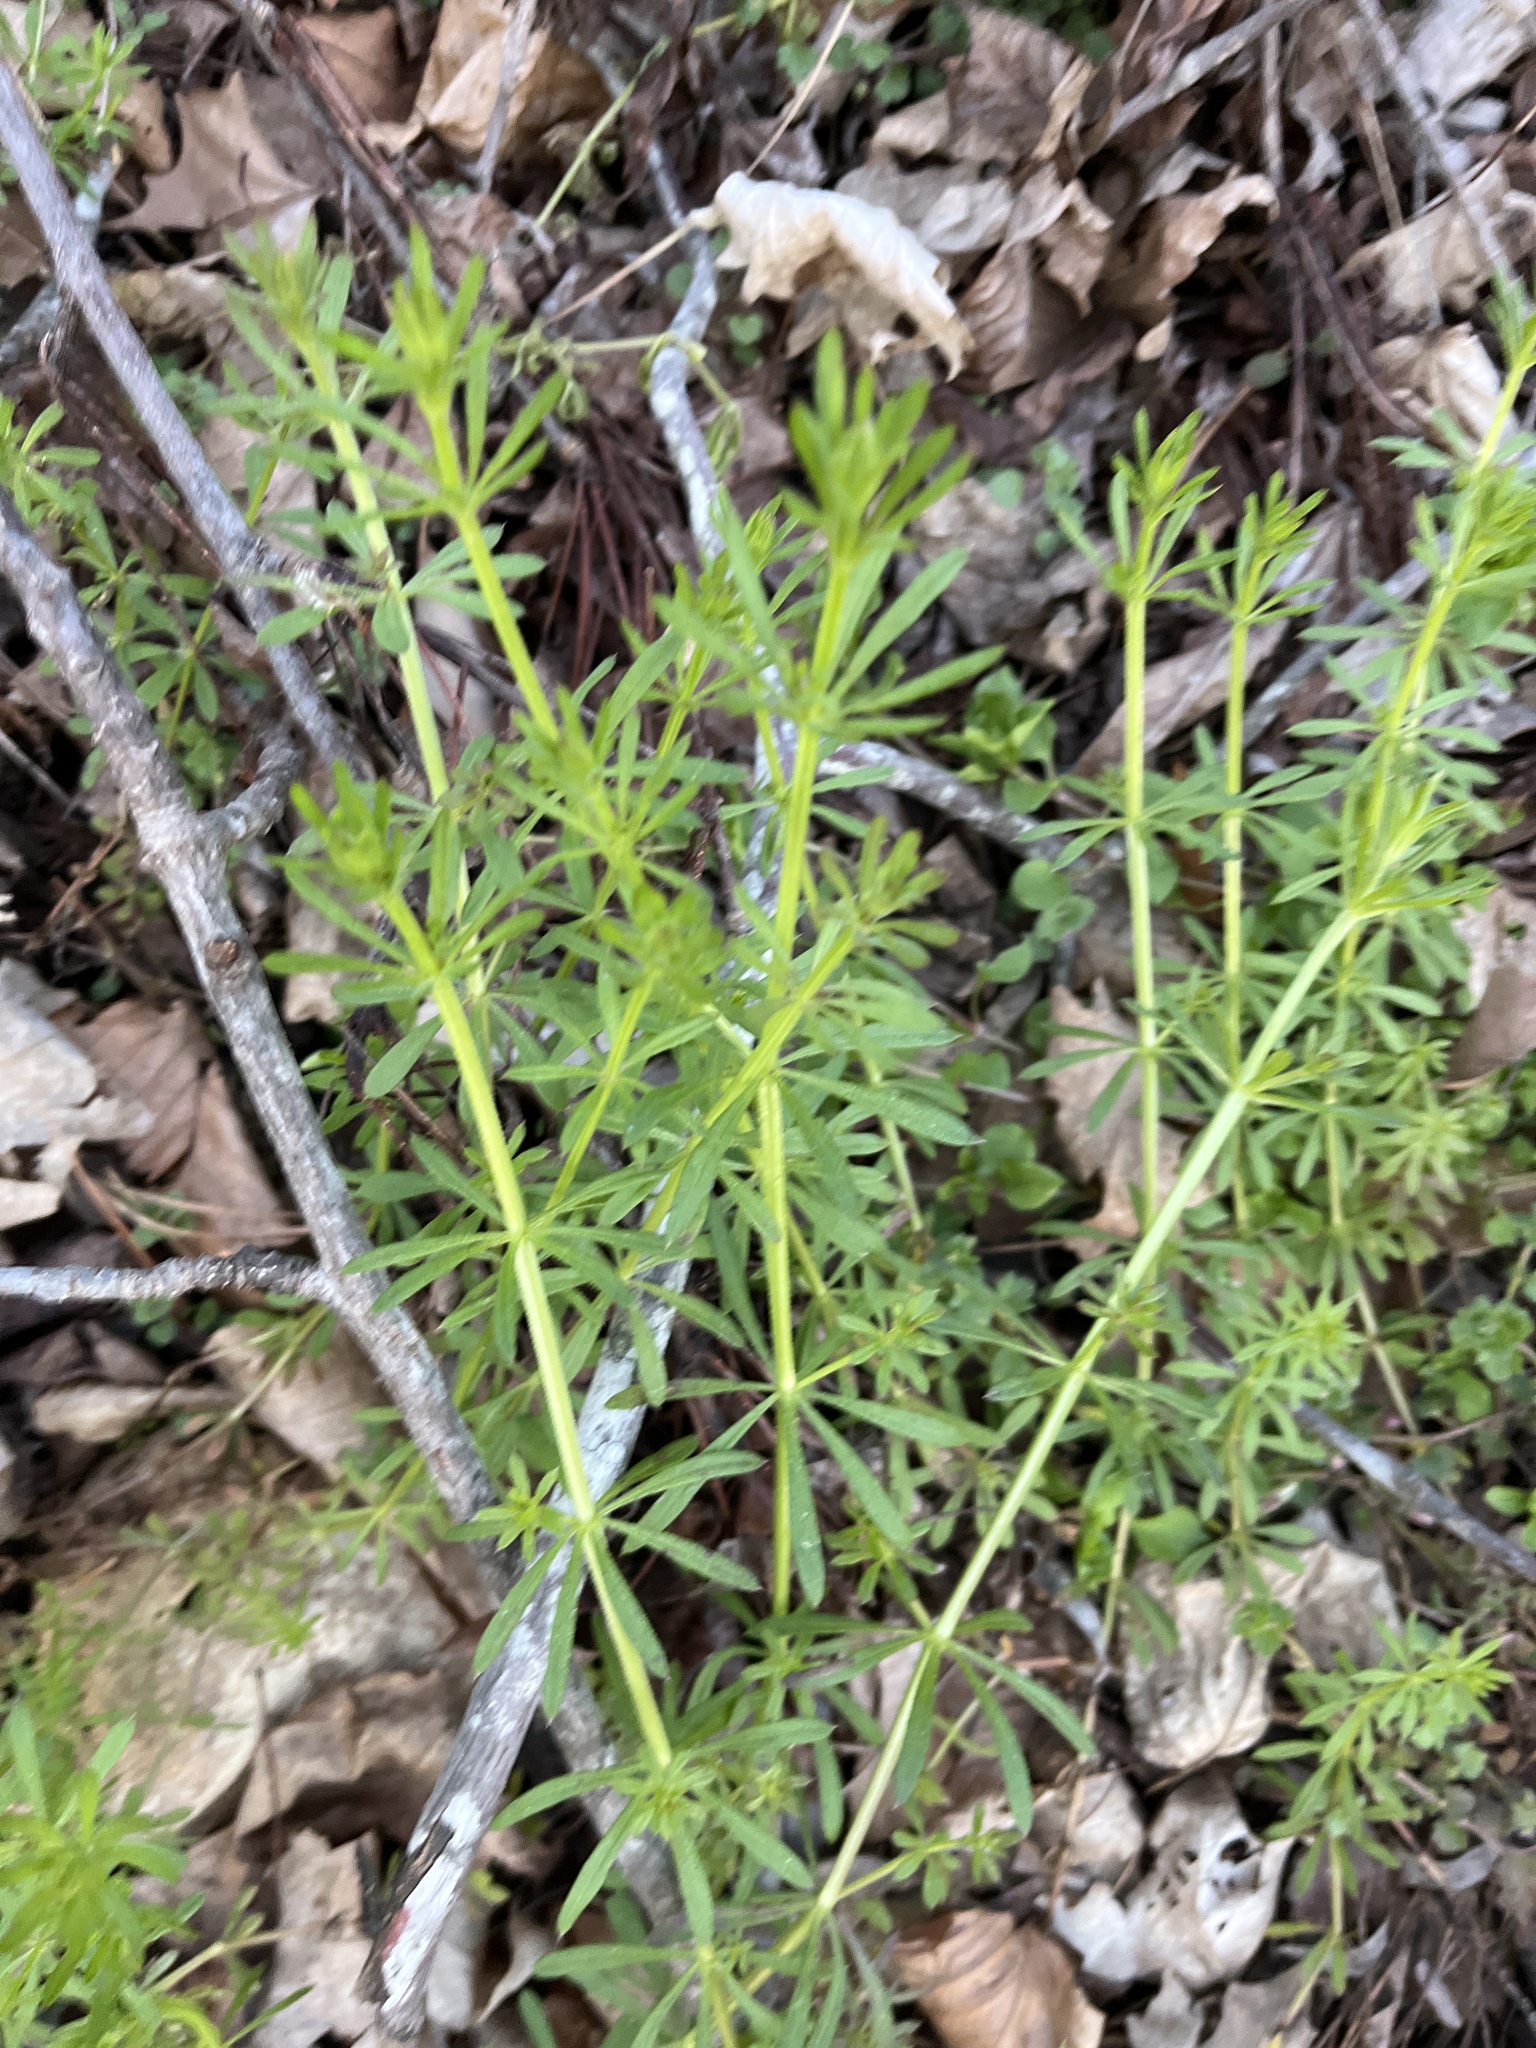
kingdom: Plantae
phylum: Tracheophyta
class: Magnoliopsida
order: Gentianales
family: Rubiaceae
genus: Galium
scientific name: Galium aparine
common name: Cleavers
